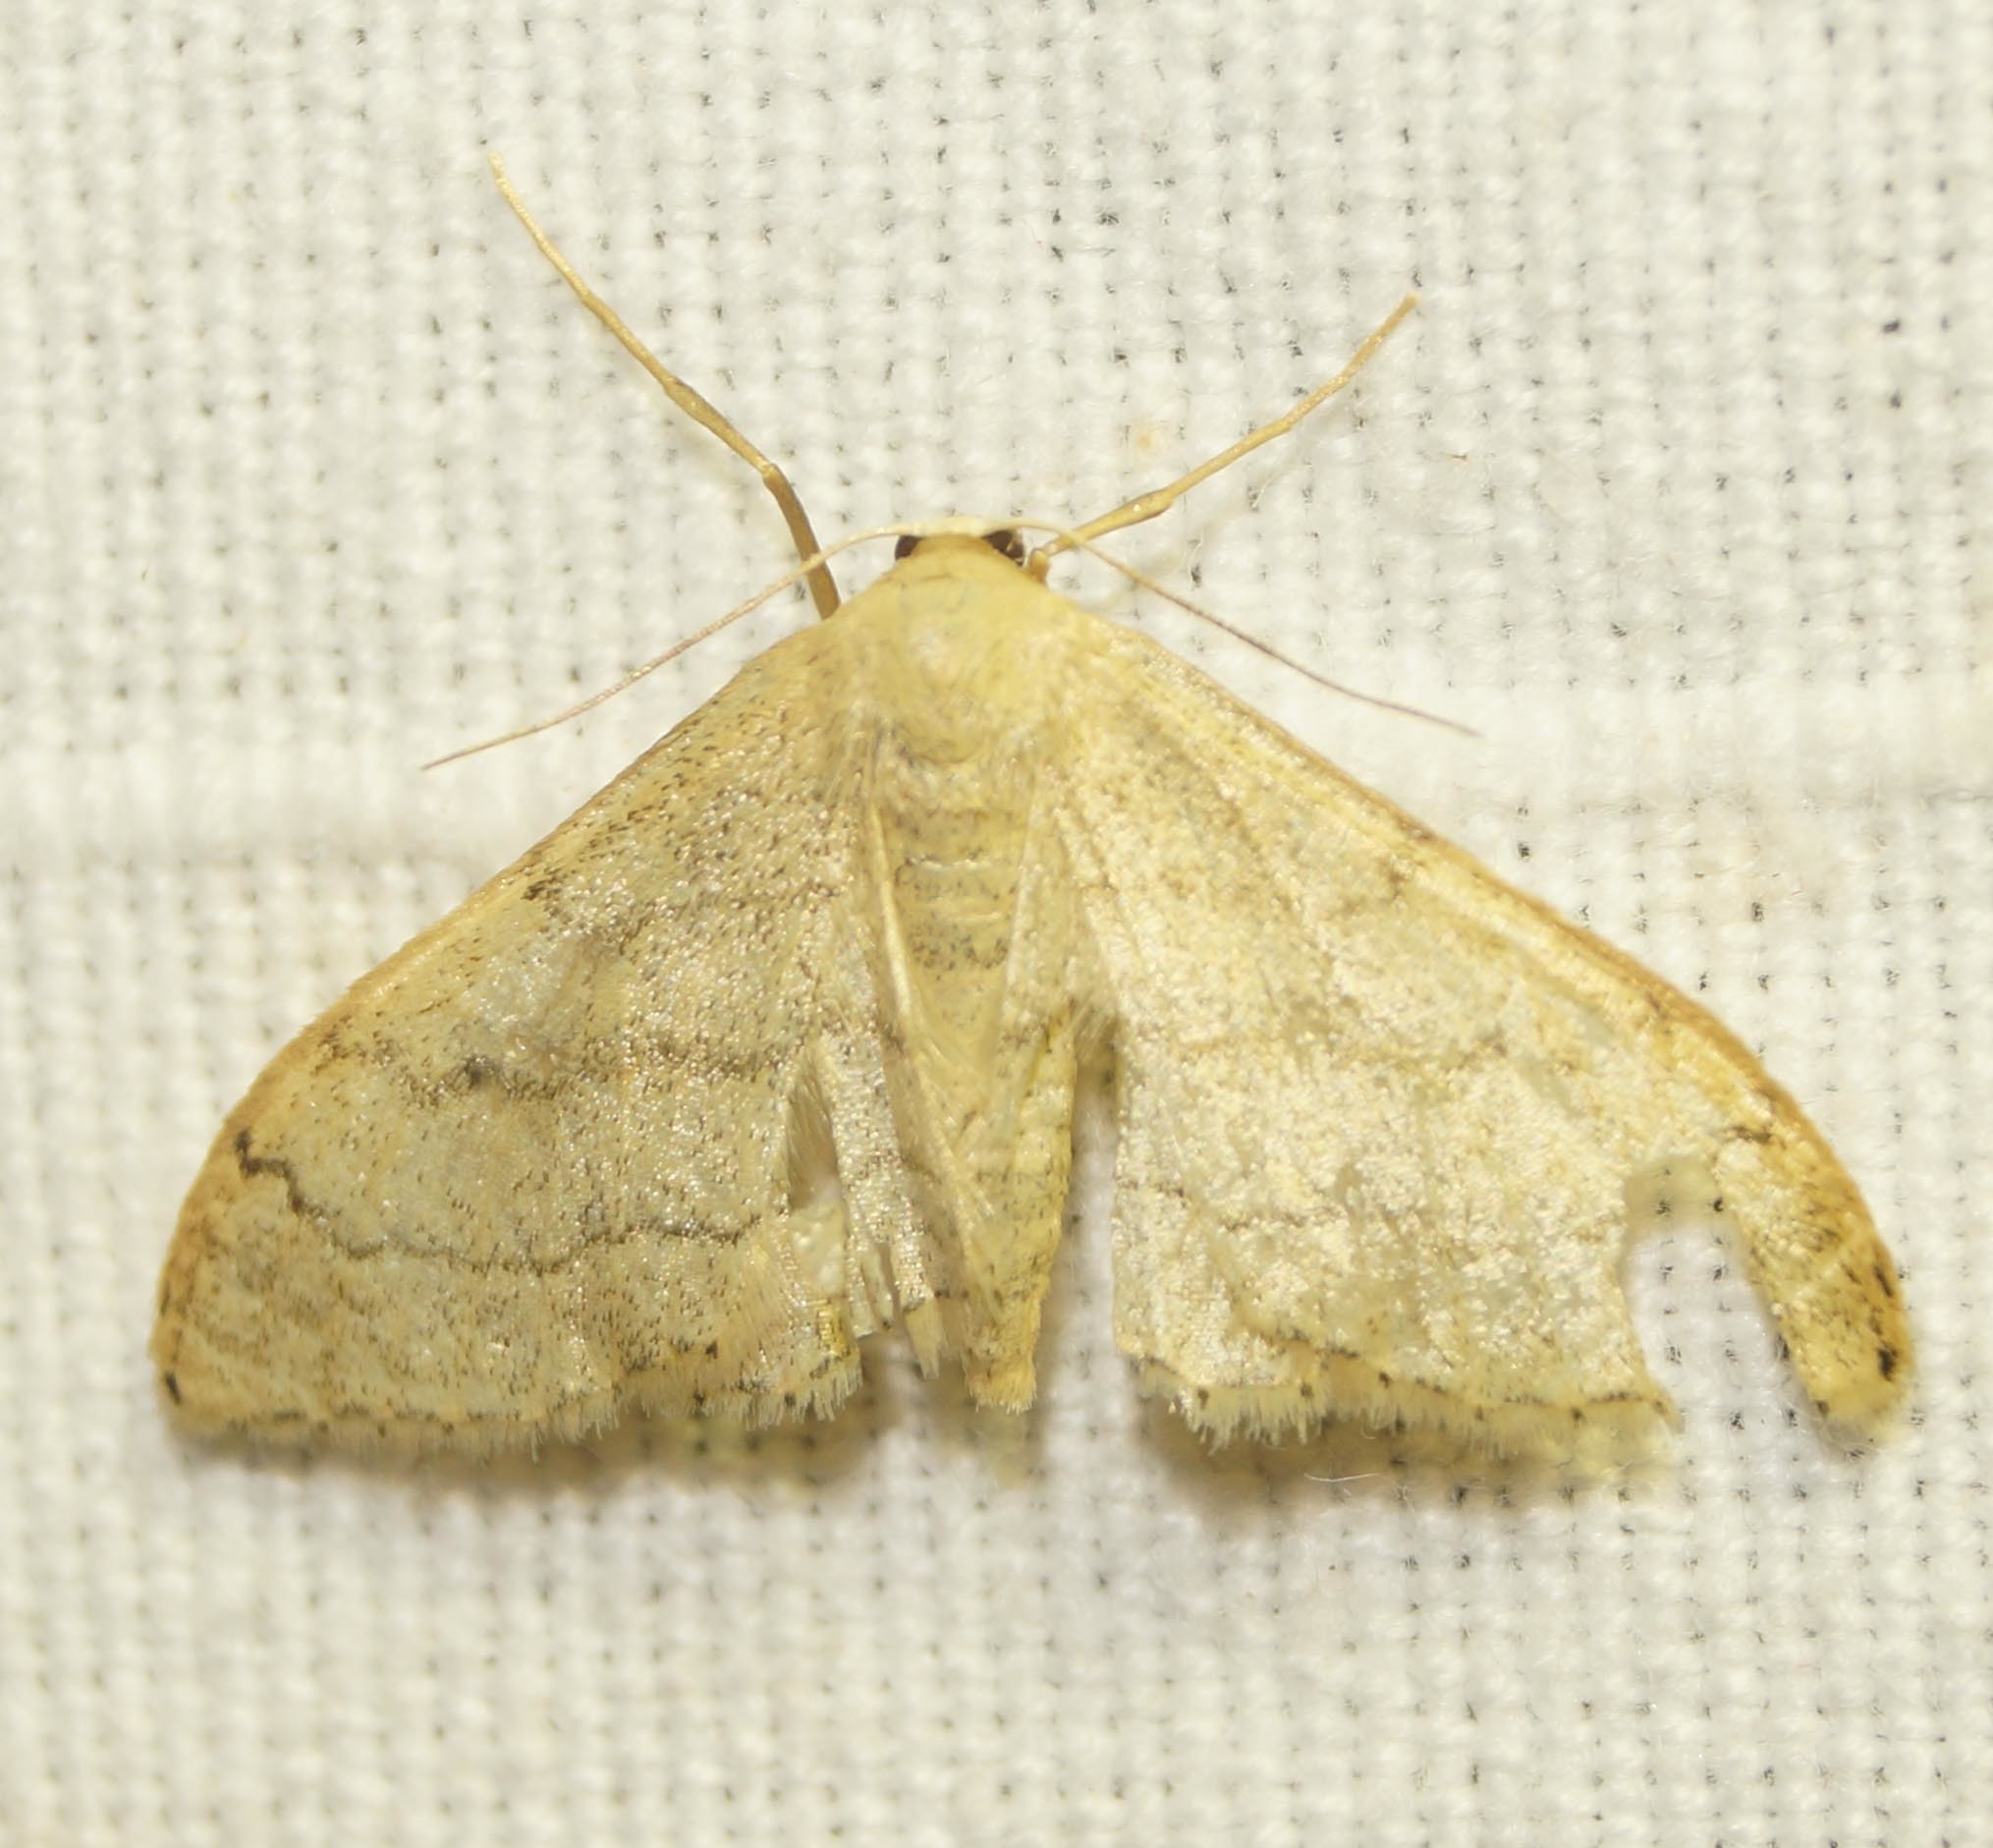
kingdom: Animalia
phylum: Arthropoda
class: Insecta
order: Lepidoptera
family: Geometridae
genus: Idaea
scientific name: Idaea aversata
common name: Riband wave
